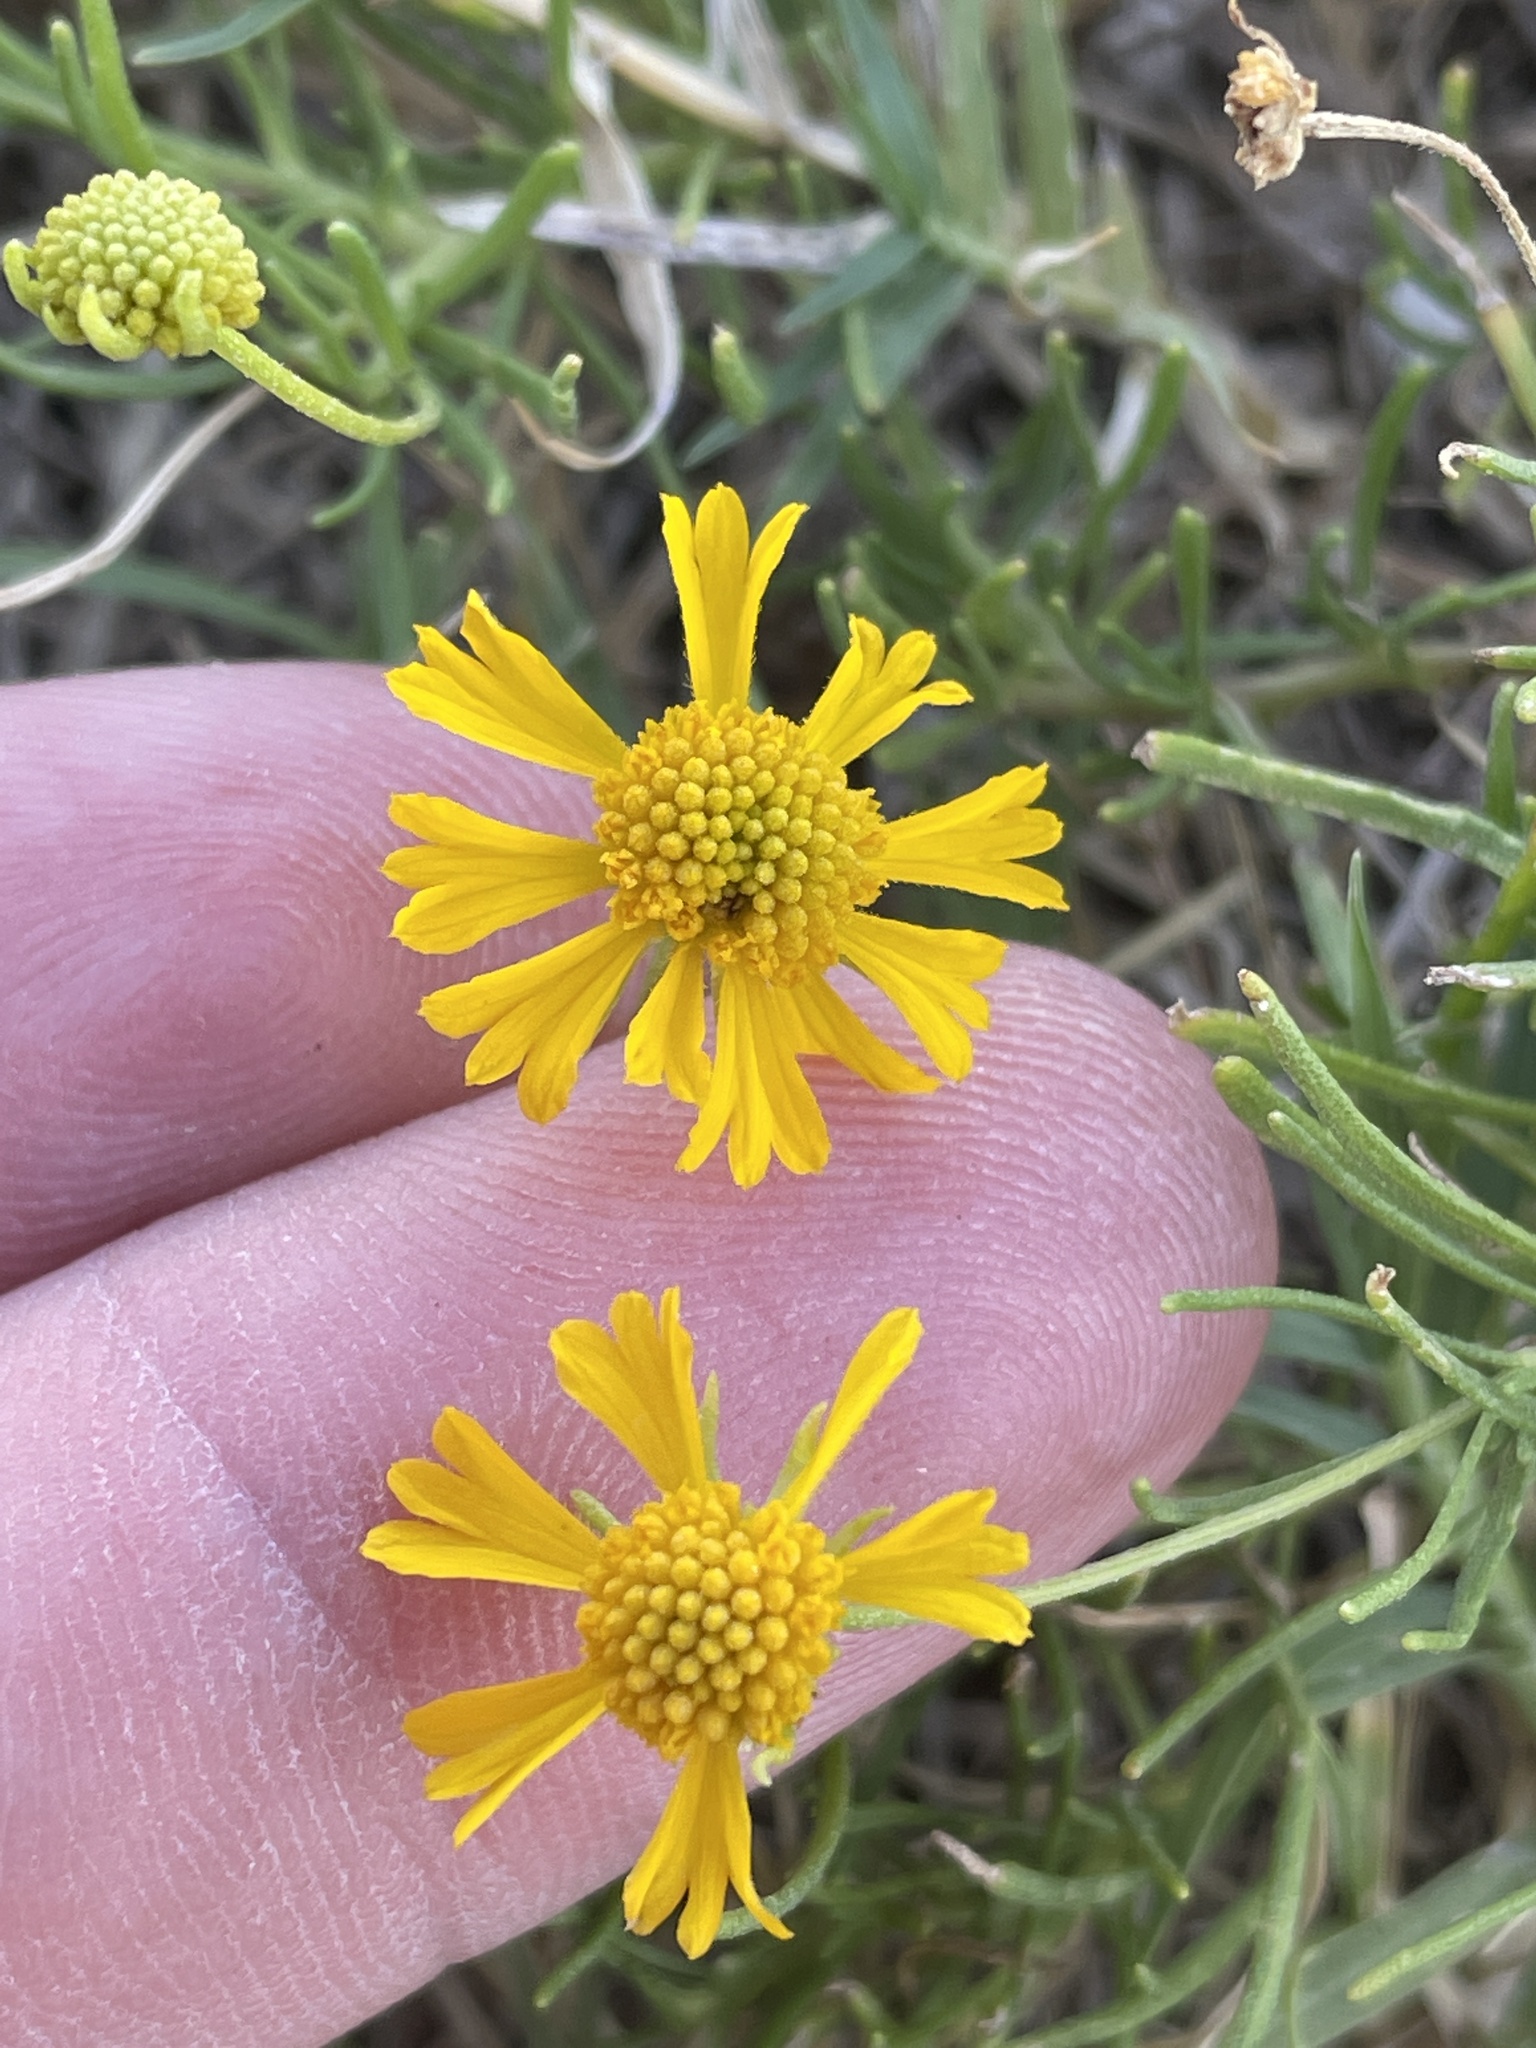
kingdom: Plantae
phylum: Tracheophyta
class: Magnoliopsida
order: Asterales
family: Asteraceae
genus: Helenium
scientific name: Helenium amarum
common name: Bitter sneezeweed
